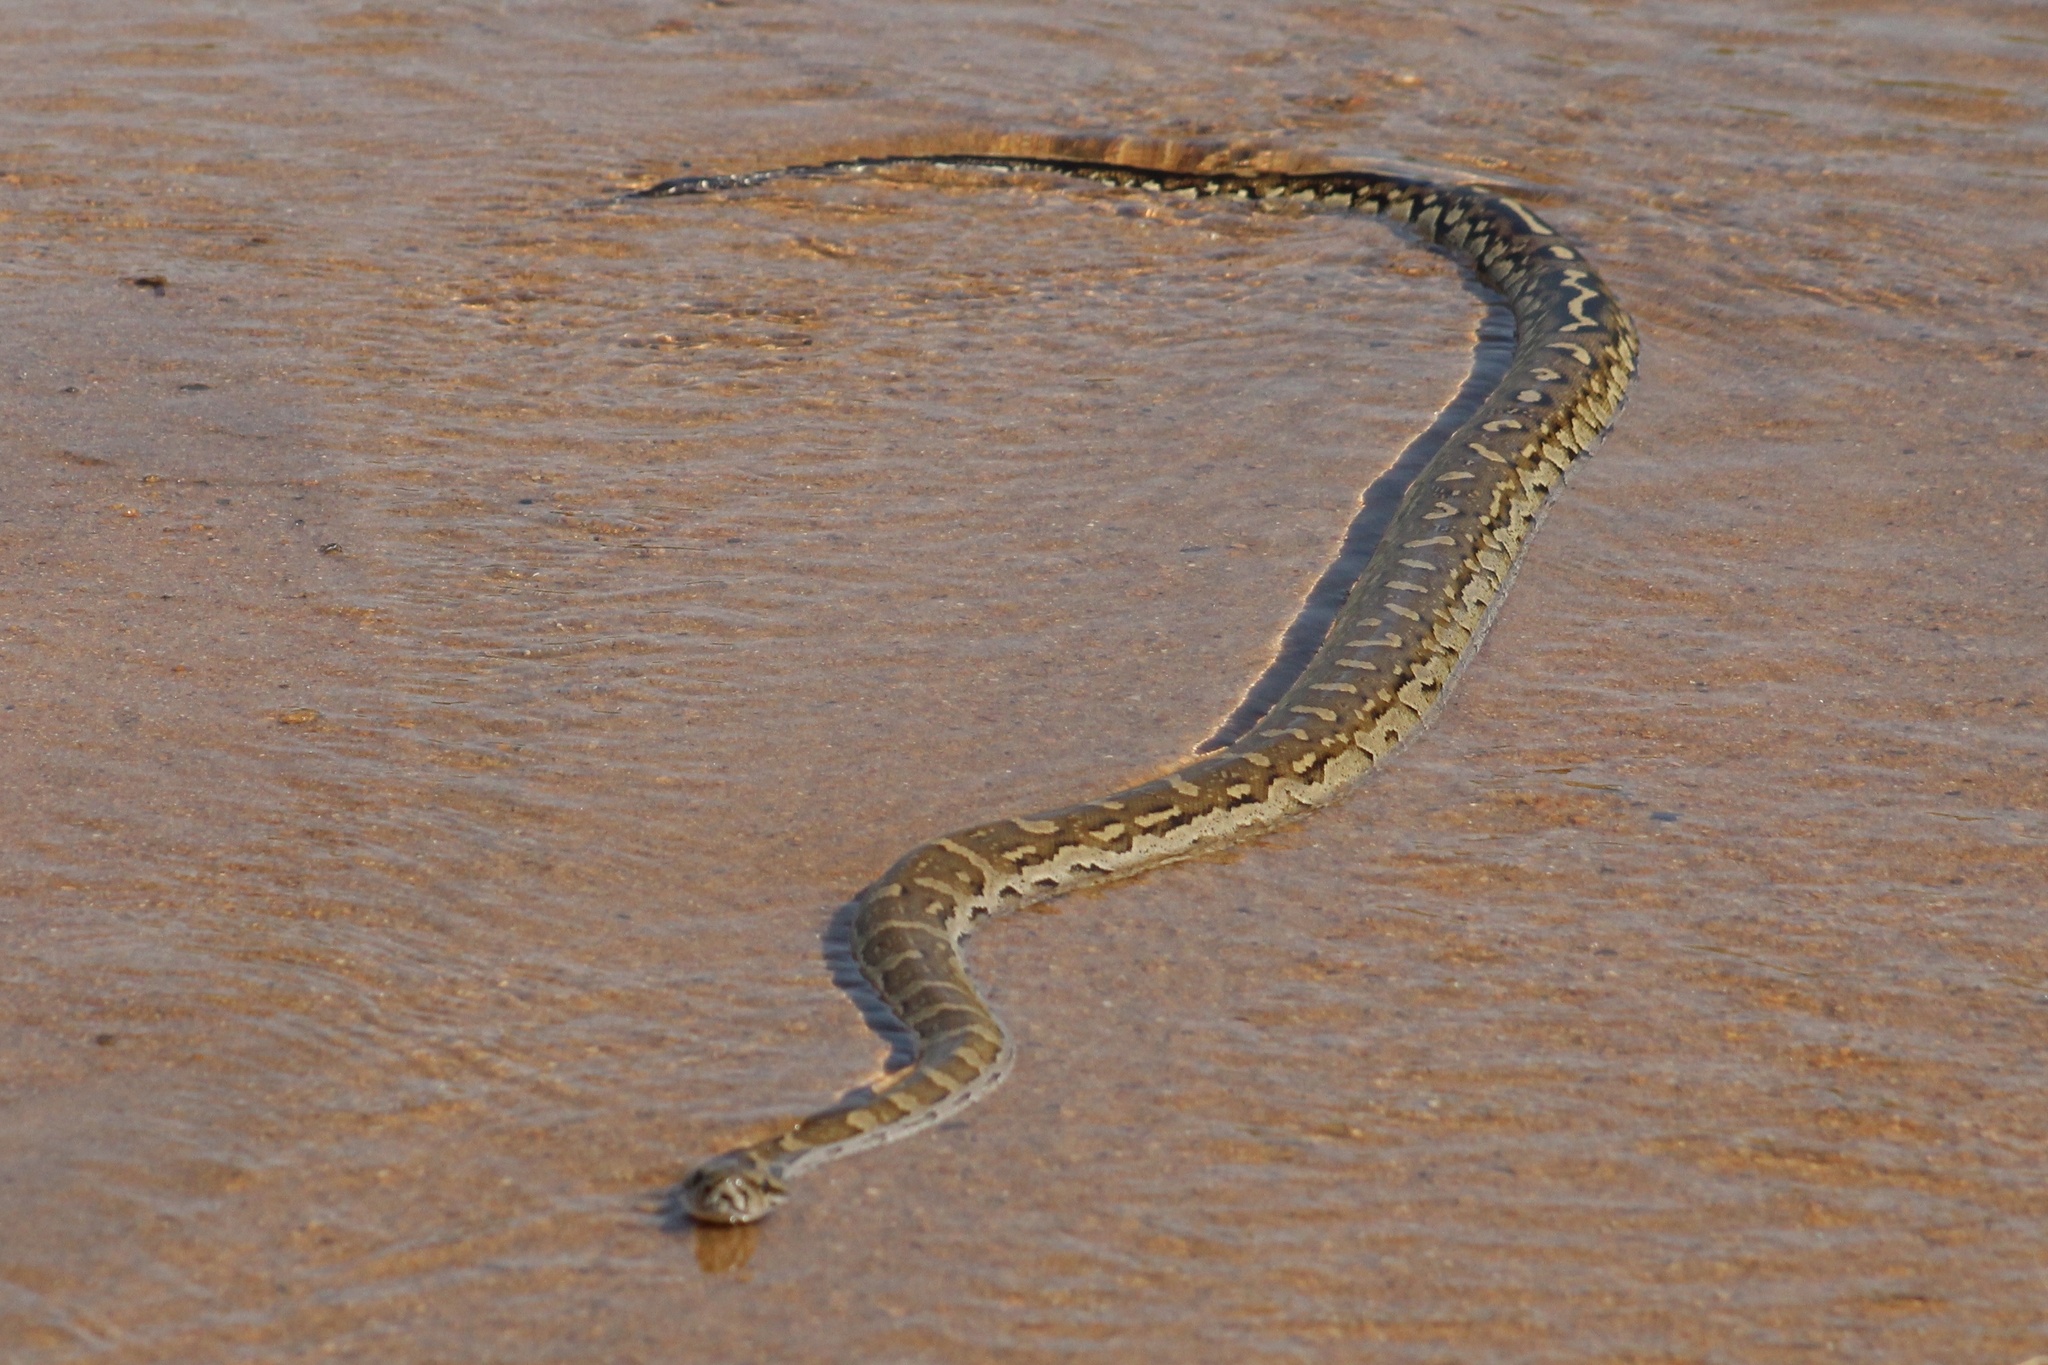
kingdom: Animalia
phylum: Chordata
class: Squamata
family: Pythonidae
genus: Python
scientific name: Python natalensis
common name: Southern african rock python
